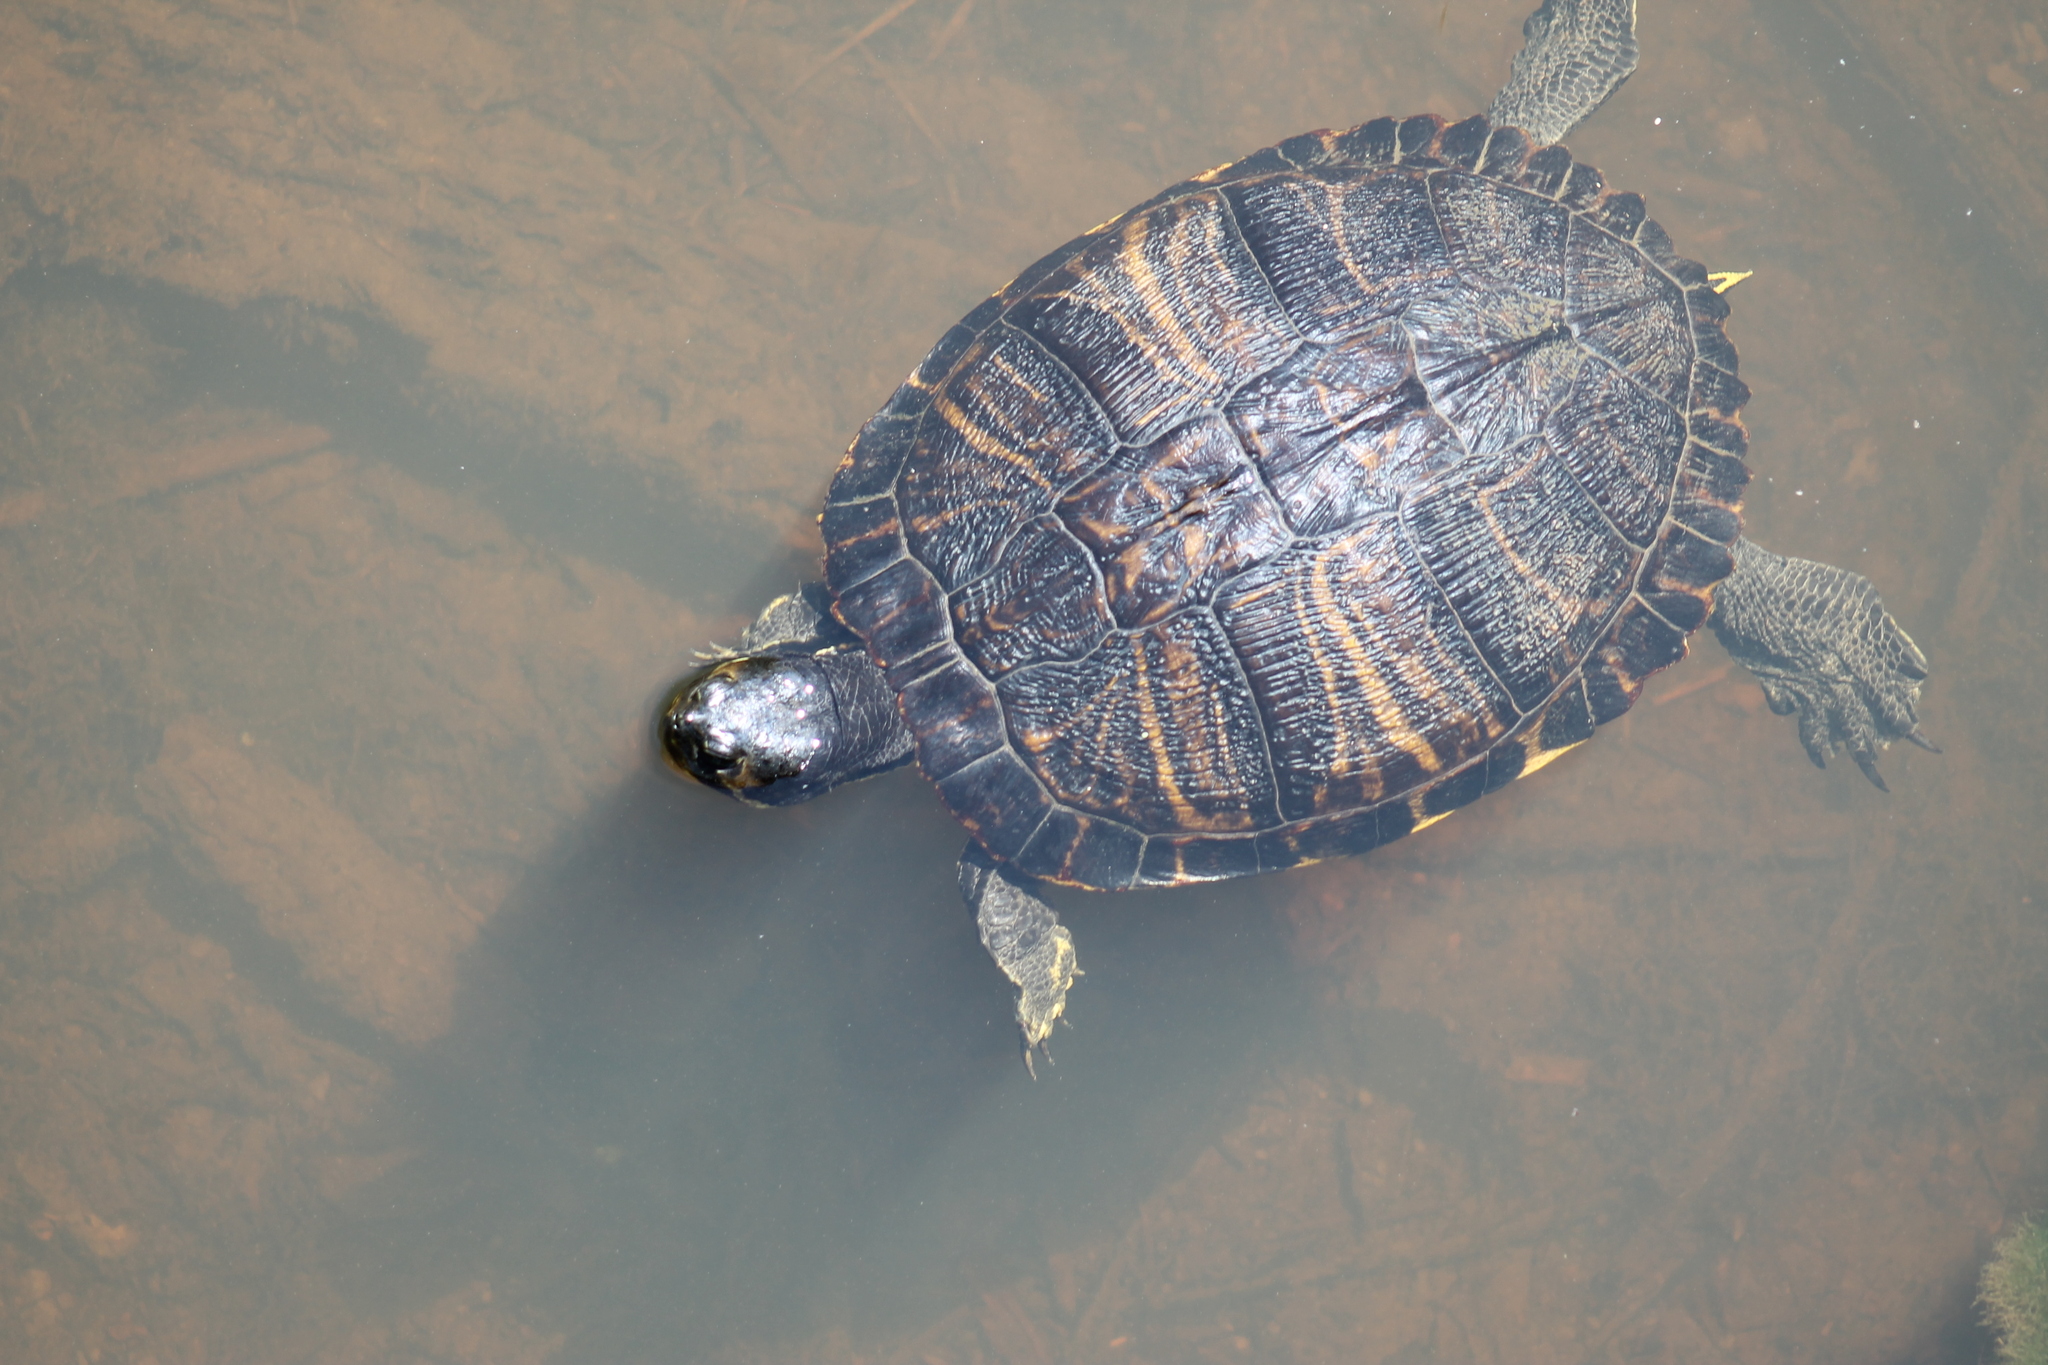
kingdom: Animalia
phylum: Chordata
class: Testudines
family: Emydidae
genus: Trachemys
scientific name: Trachemys scripta
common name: Slider
